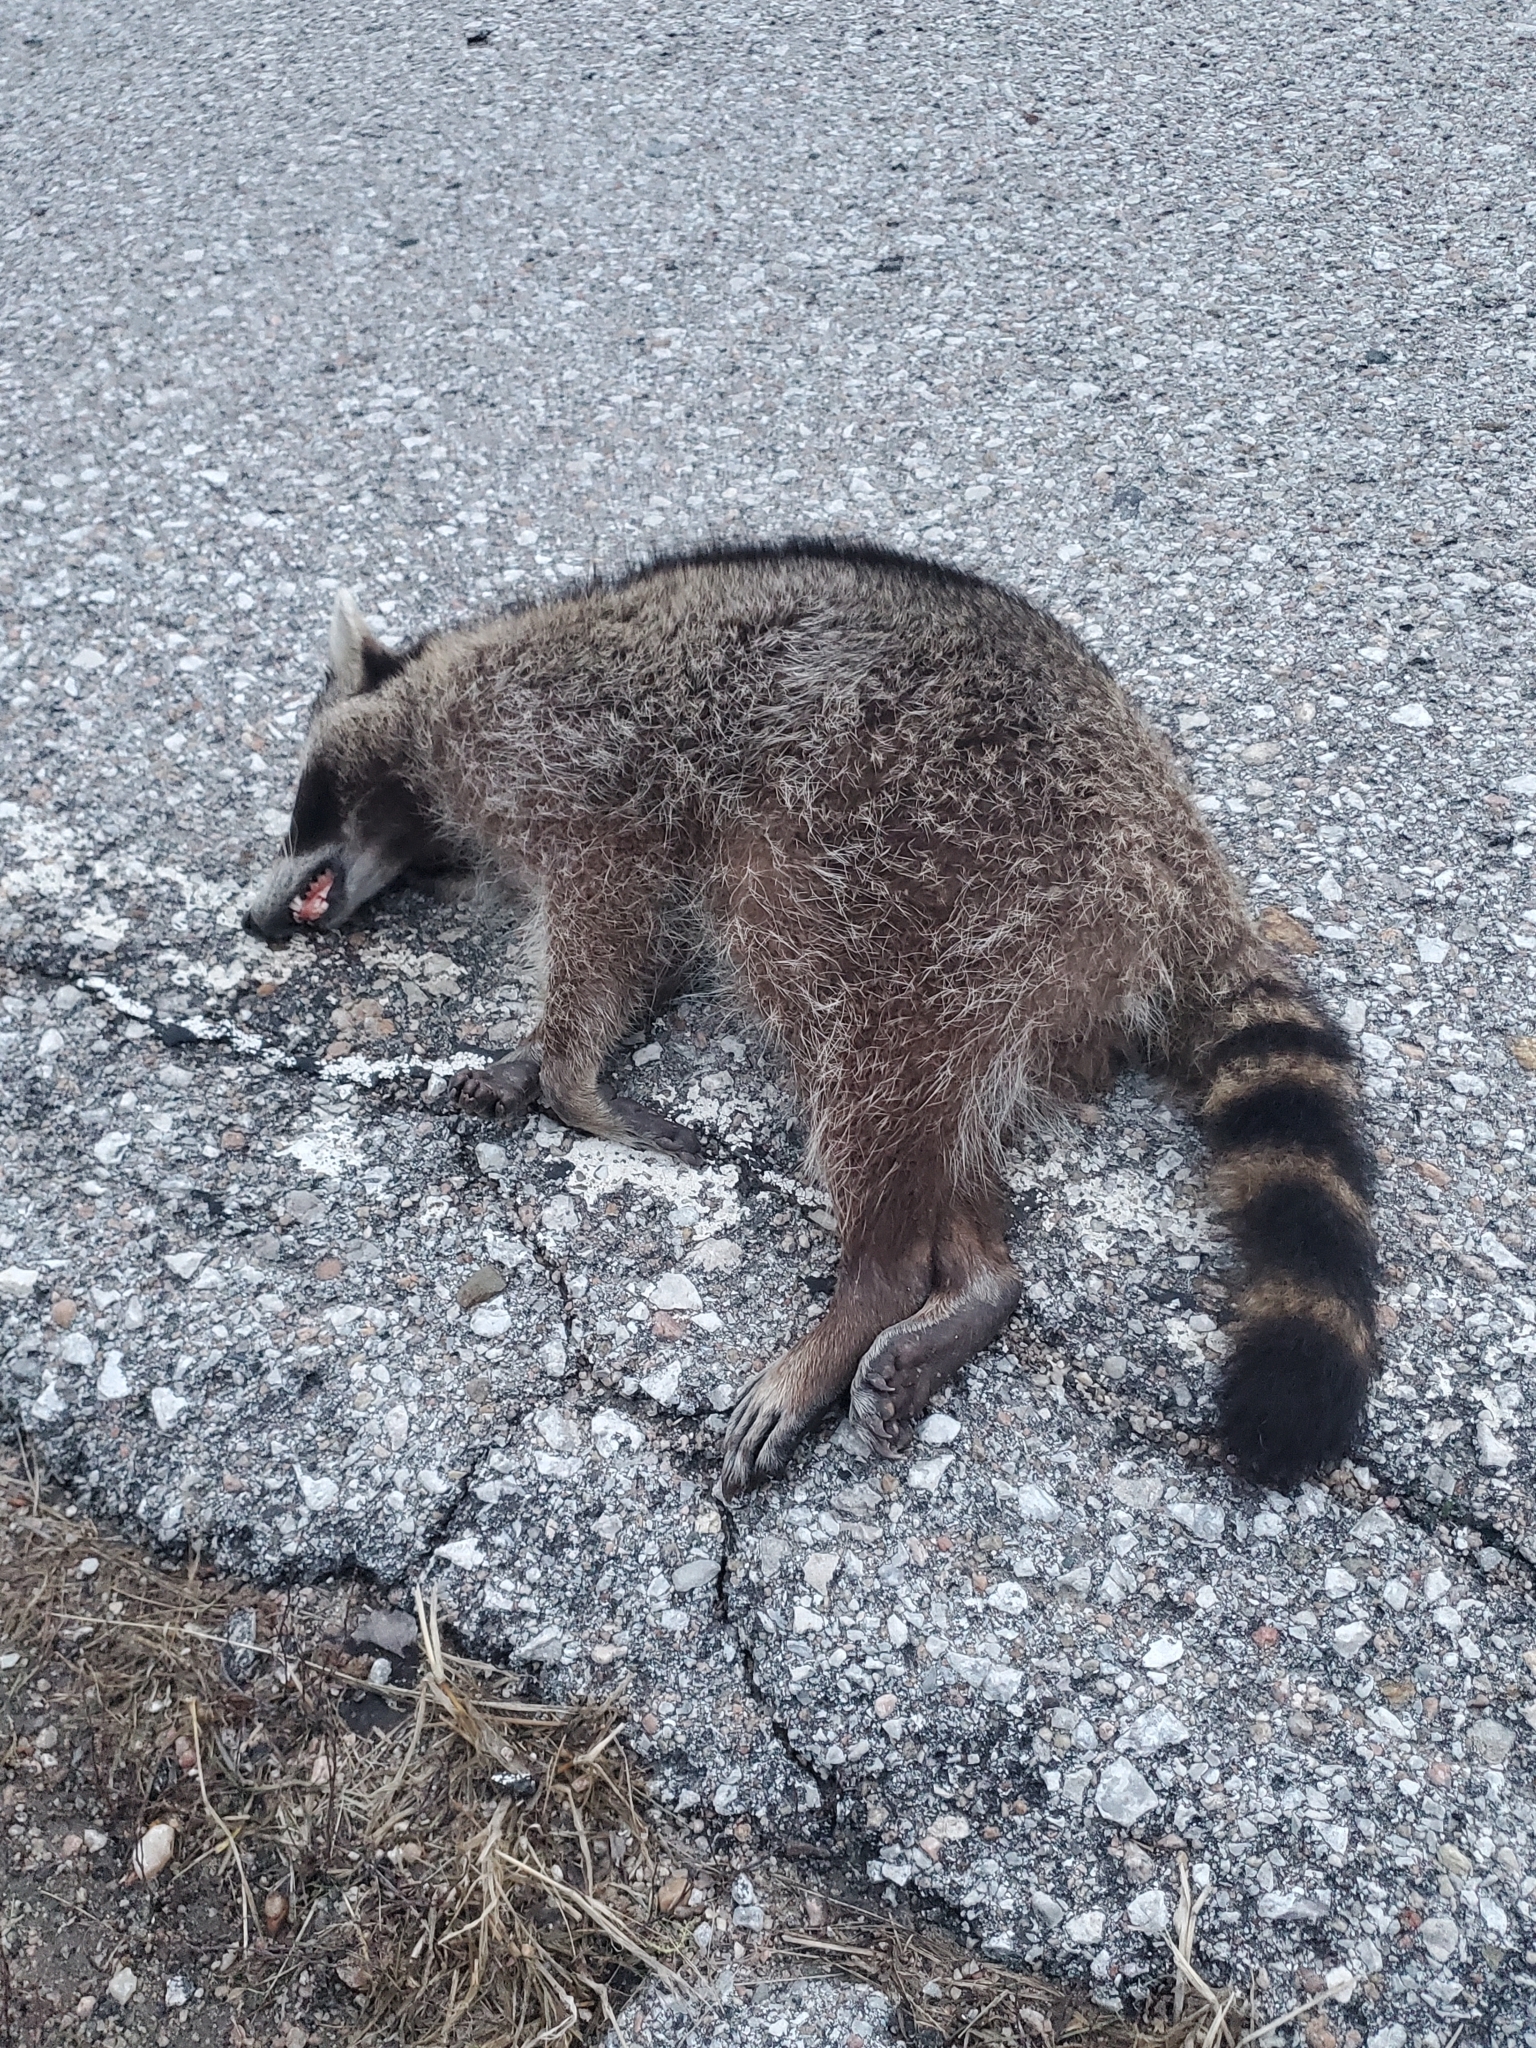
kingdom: Animalia
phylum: Chordata
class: Mammalia
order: Carnivora
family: Procyonidae
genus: Procyon
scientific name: Procyon lotor
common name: Raccoon
